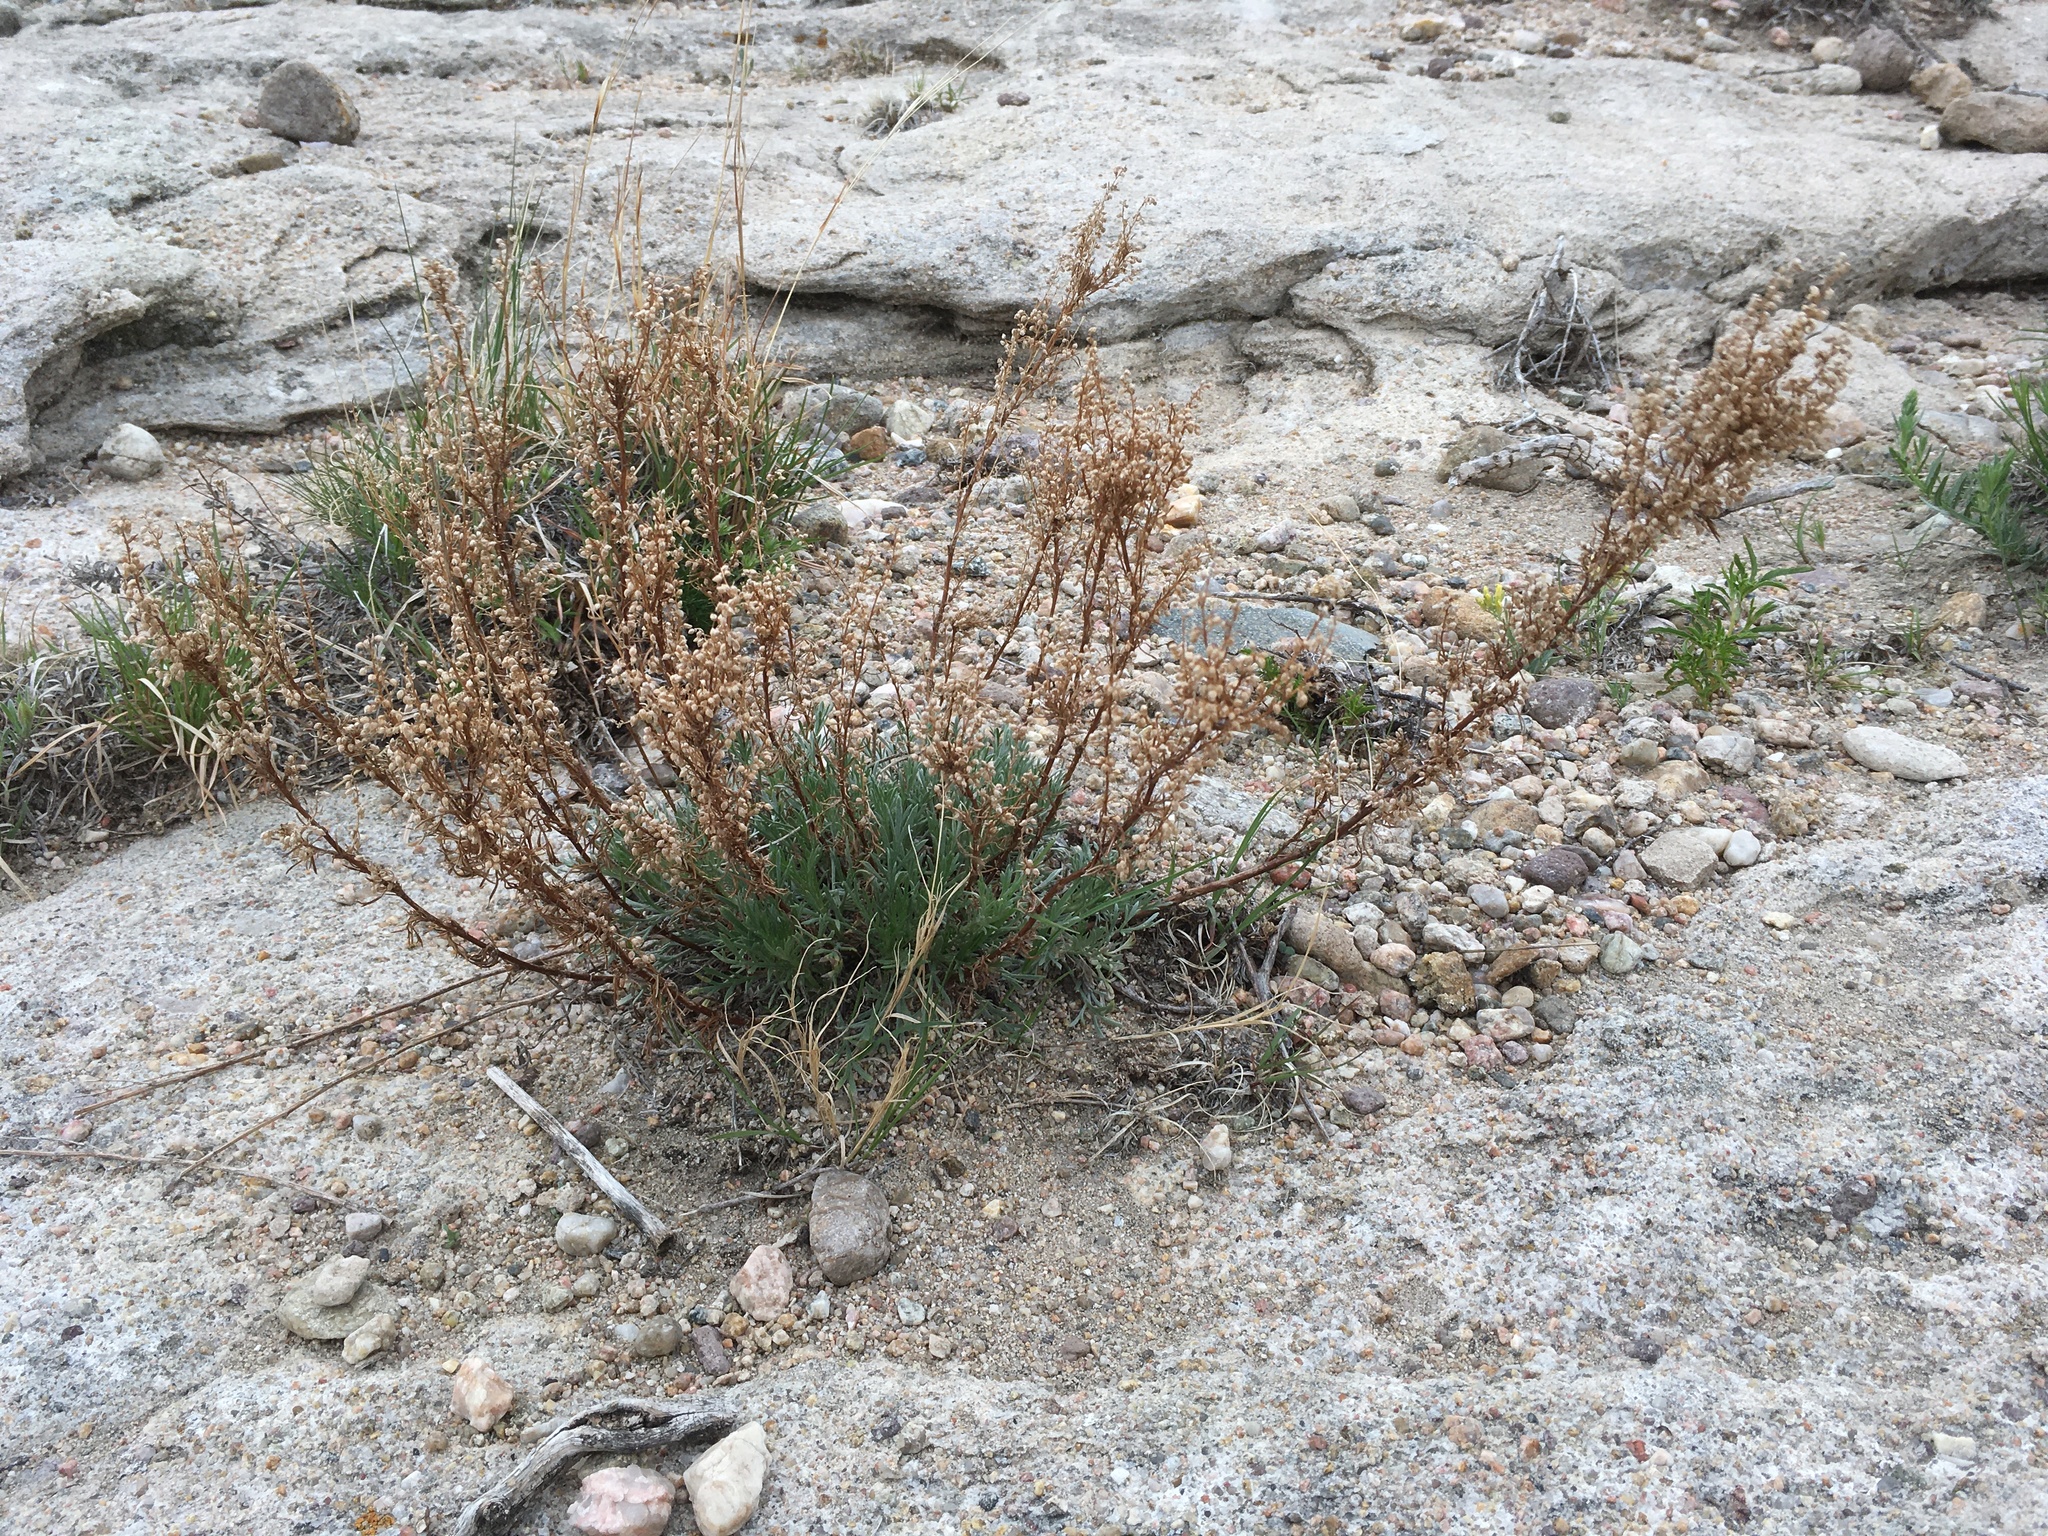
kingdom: Plantae
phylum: Tracheophyta
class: Magnoliopsida
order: Asterales
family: Asteraceae
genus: Artemisia
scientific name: Artemisia campestris
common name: Field wormwood
